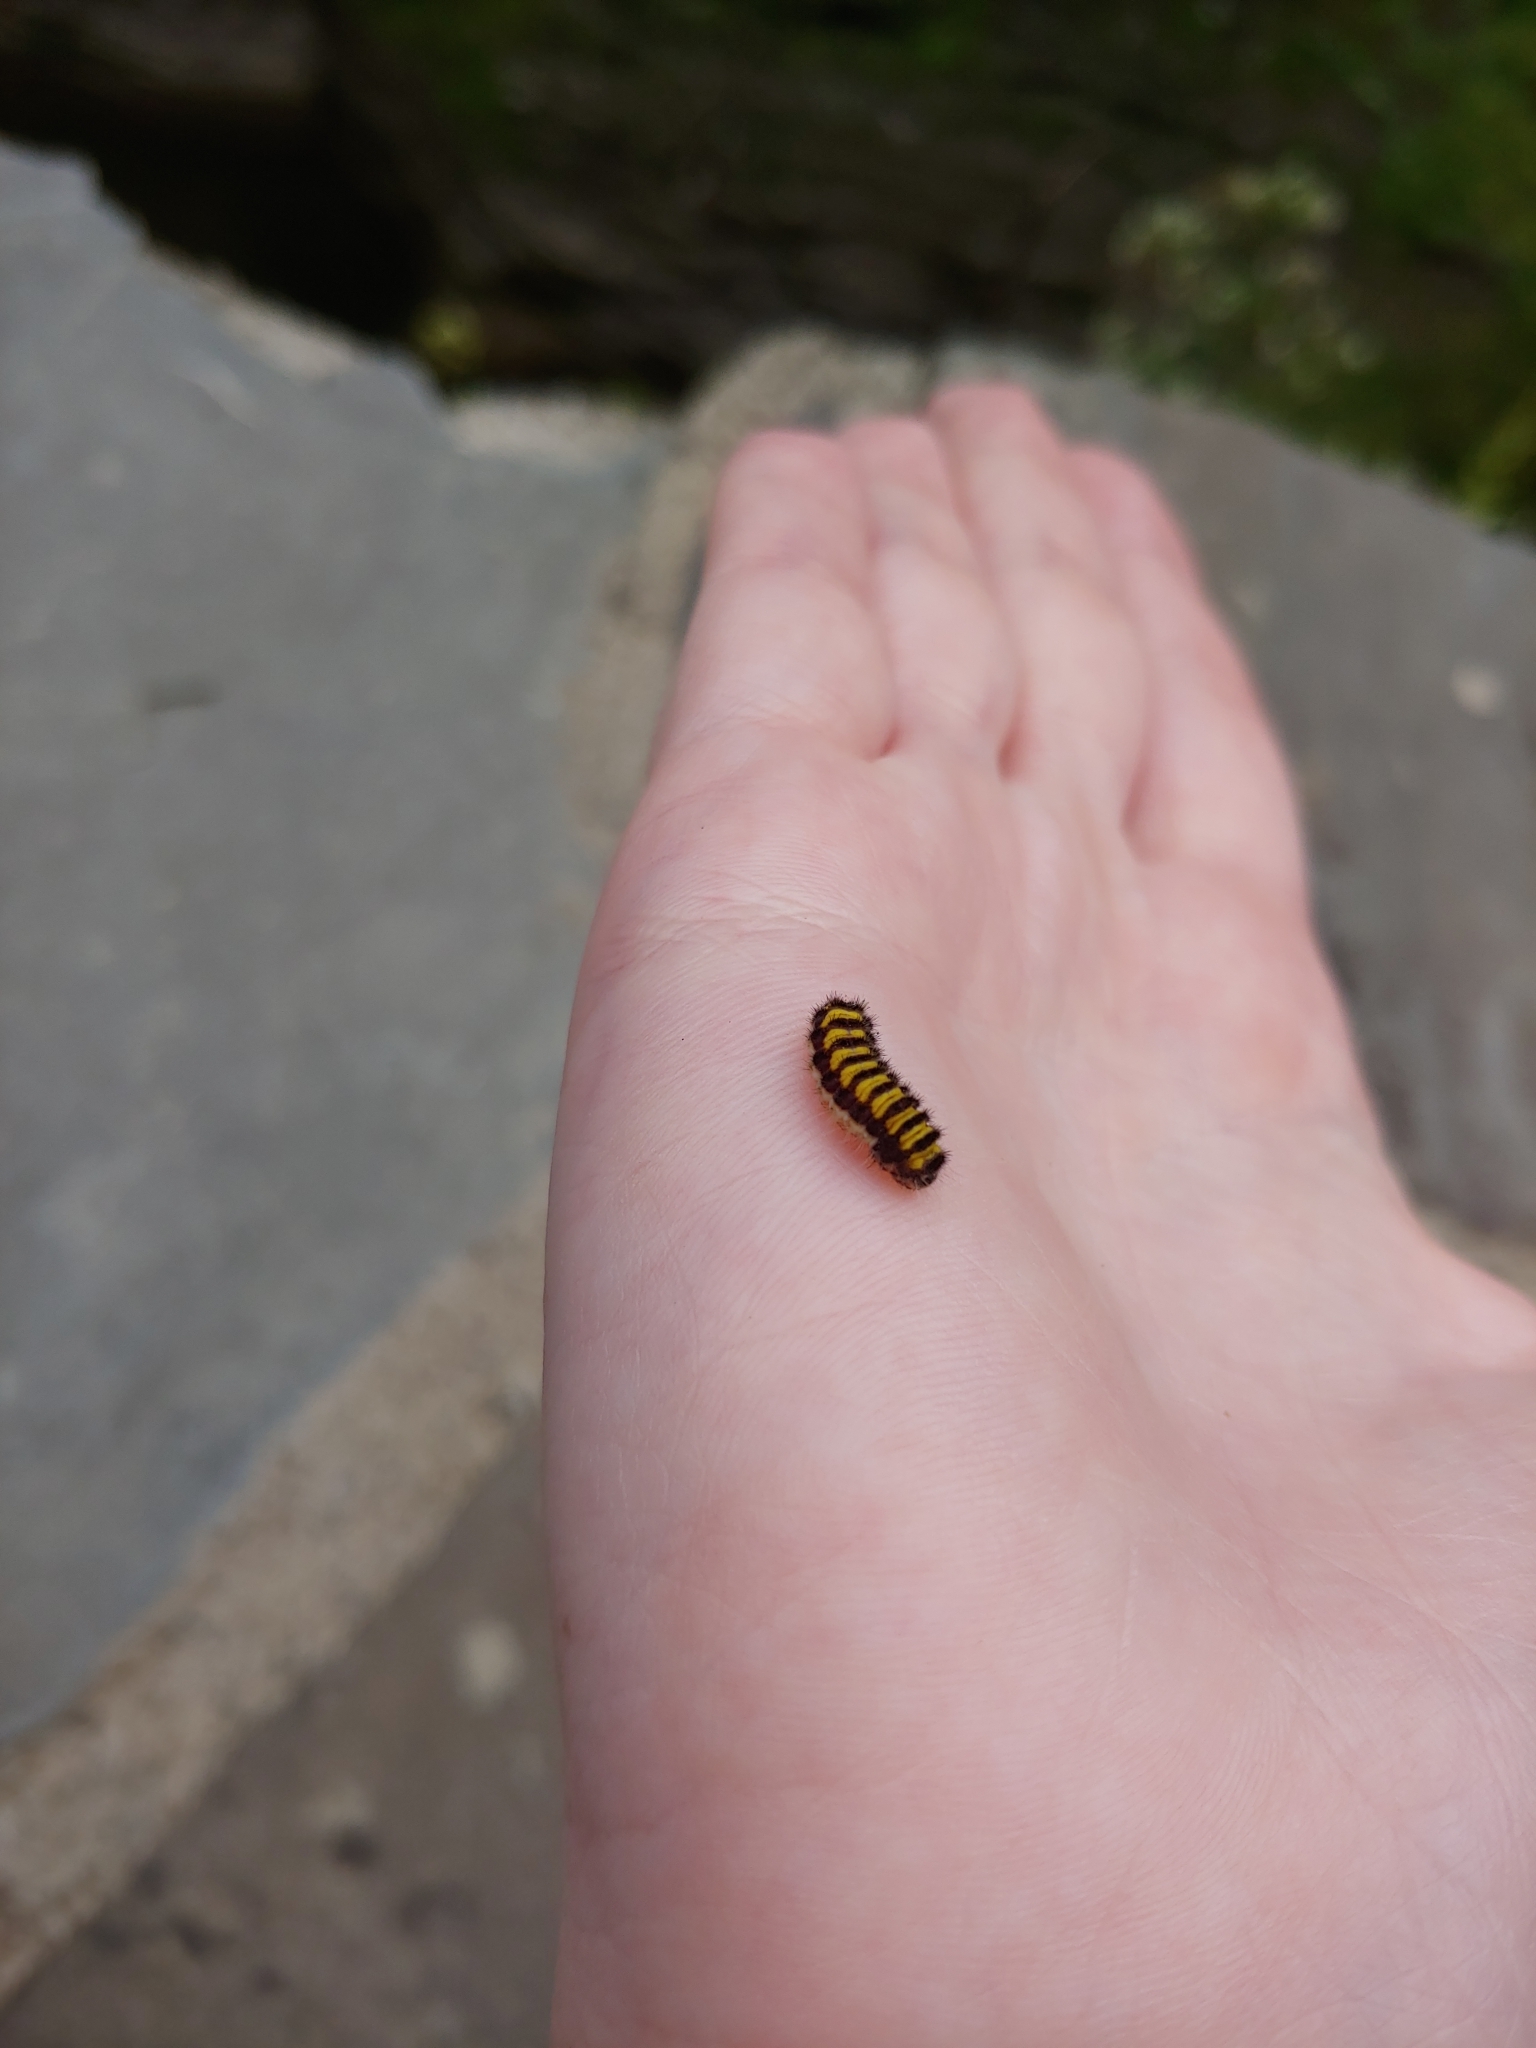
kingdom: Animalia
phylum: Arthropoda
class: Insecta
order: Lepidoptera
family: Zygaenidae
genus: Harrisina
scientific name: Harrisina americana
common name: Grapeleaf skeletonizer moth
